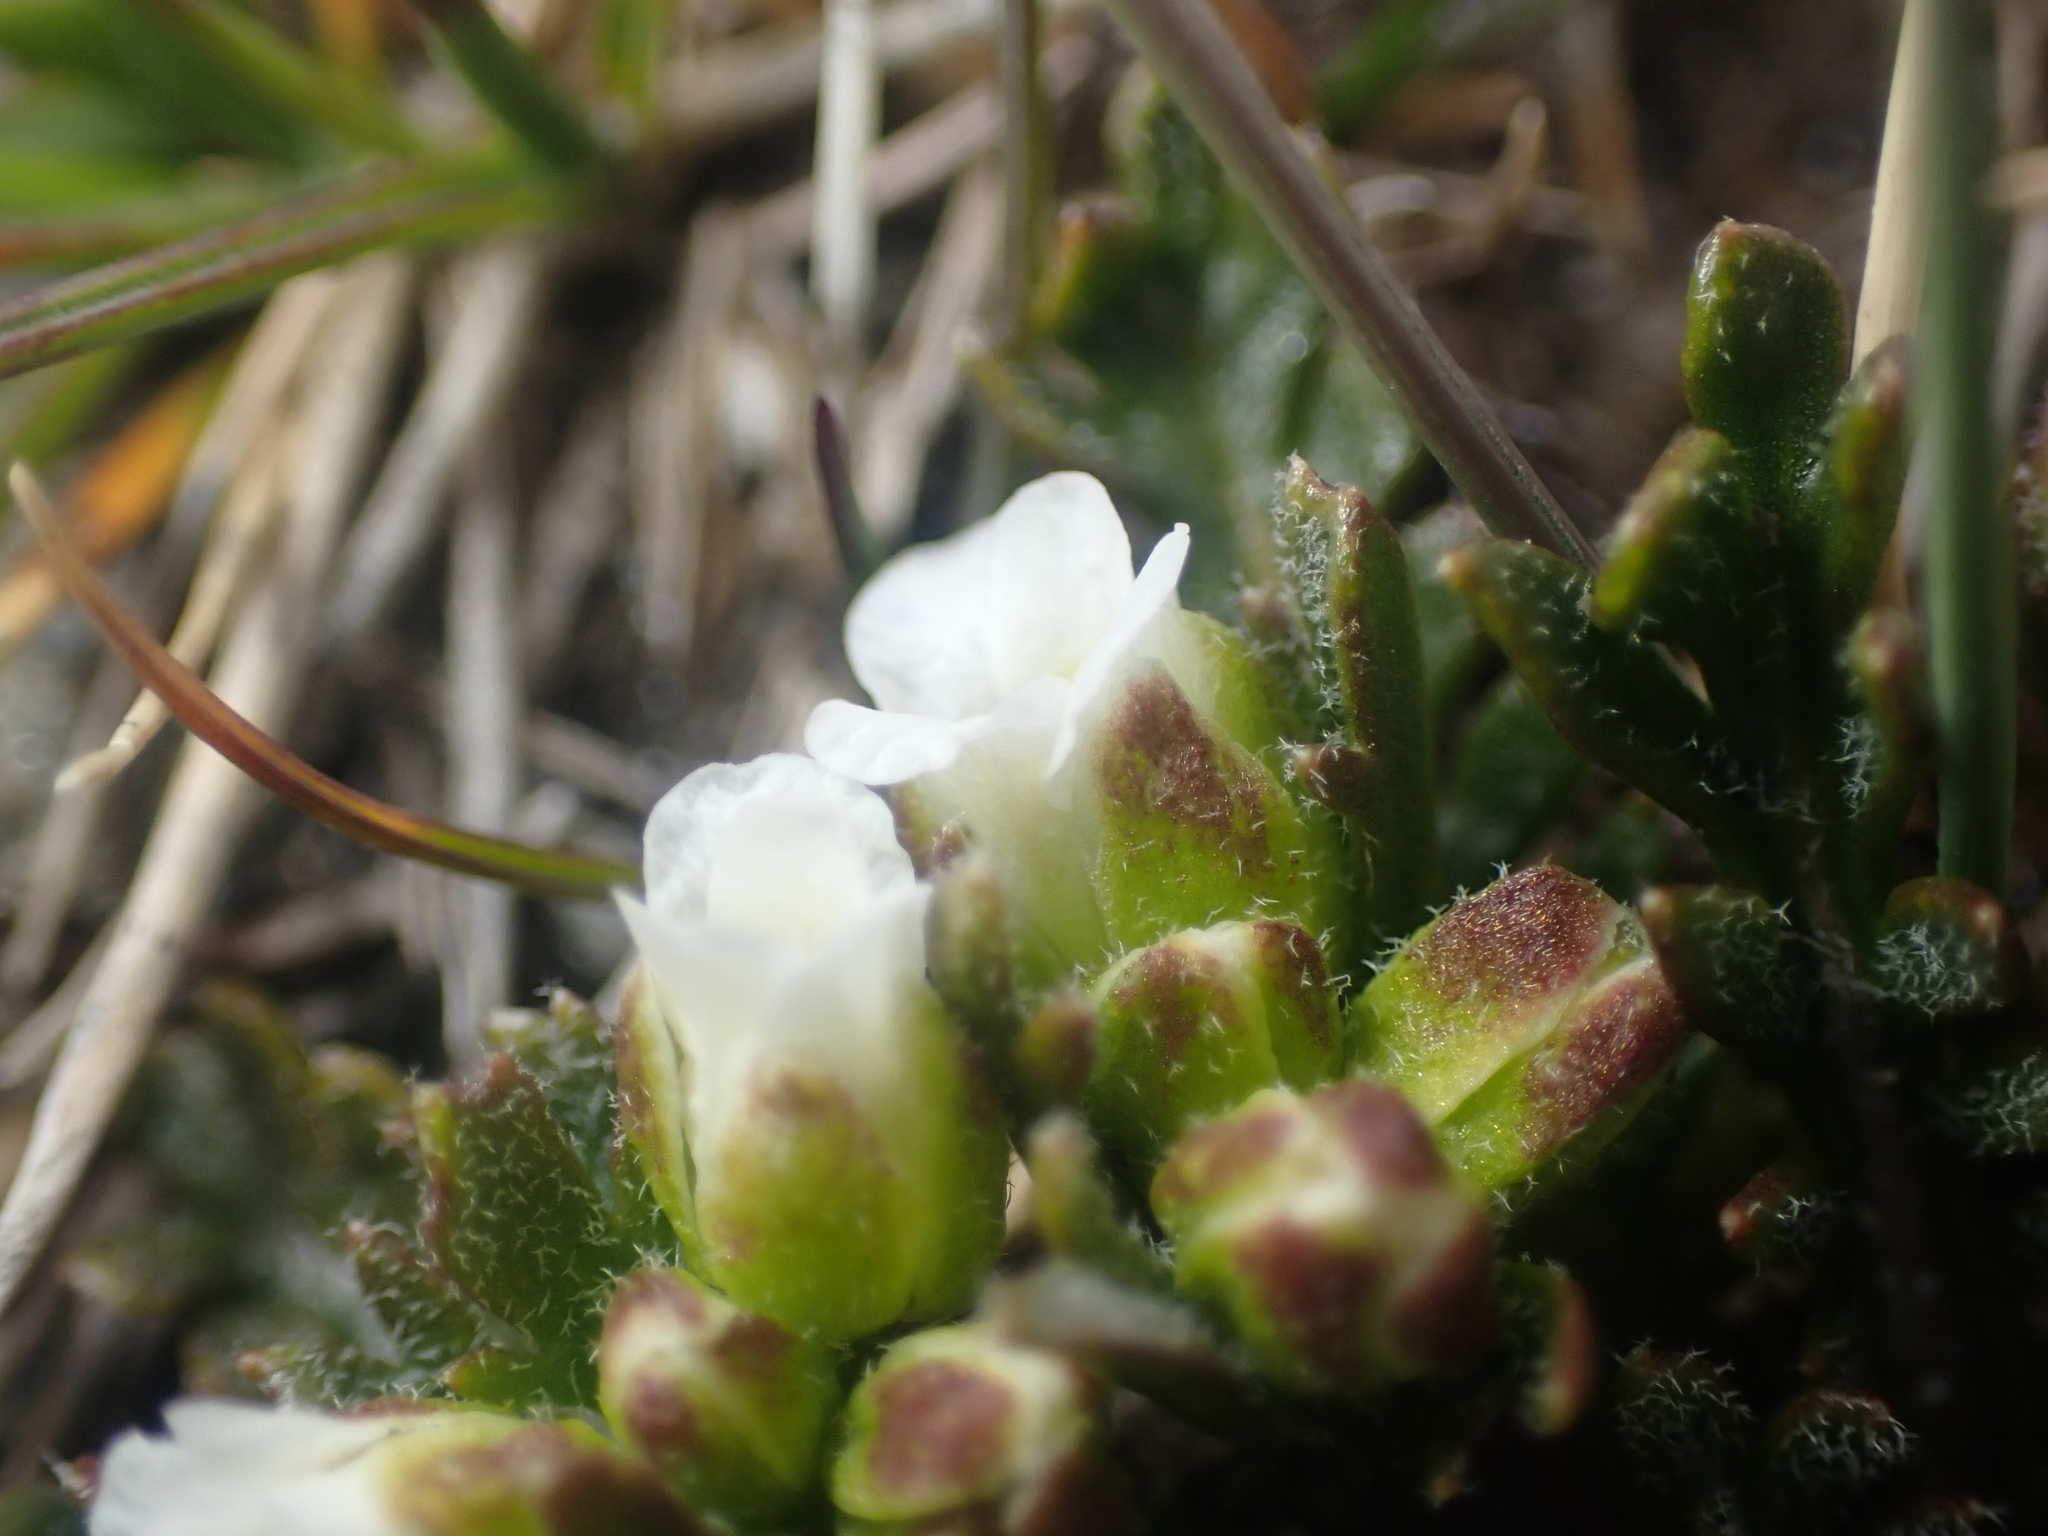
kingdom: Plantae
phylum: Tracheophyta
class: Magnoliopsida
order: Brassicales
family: Brassicaceae
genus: Pachycladon
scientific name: Pachycladon novae-zelandiae
